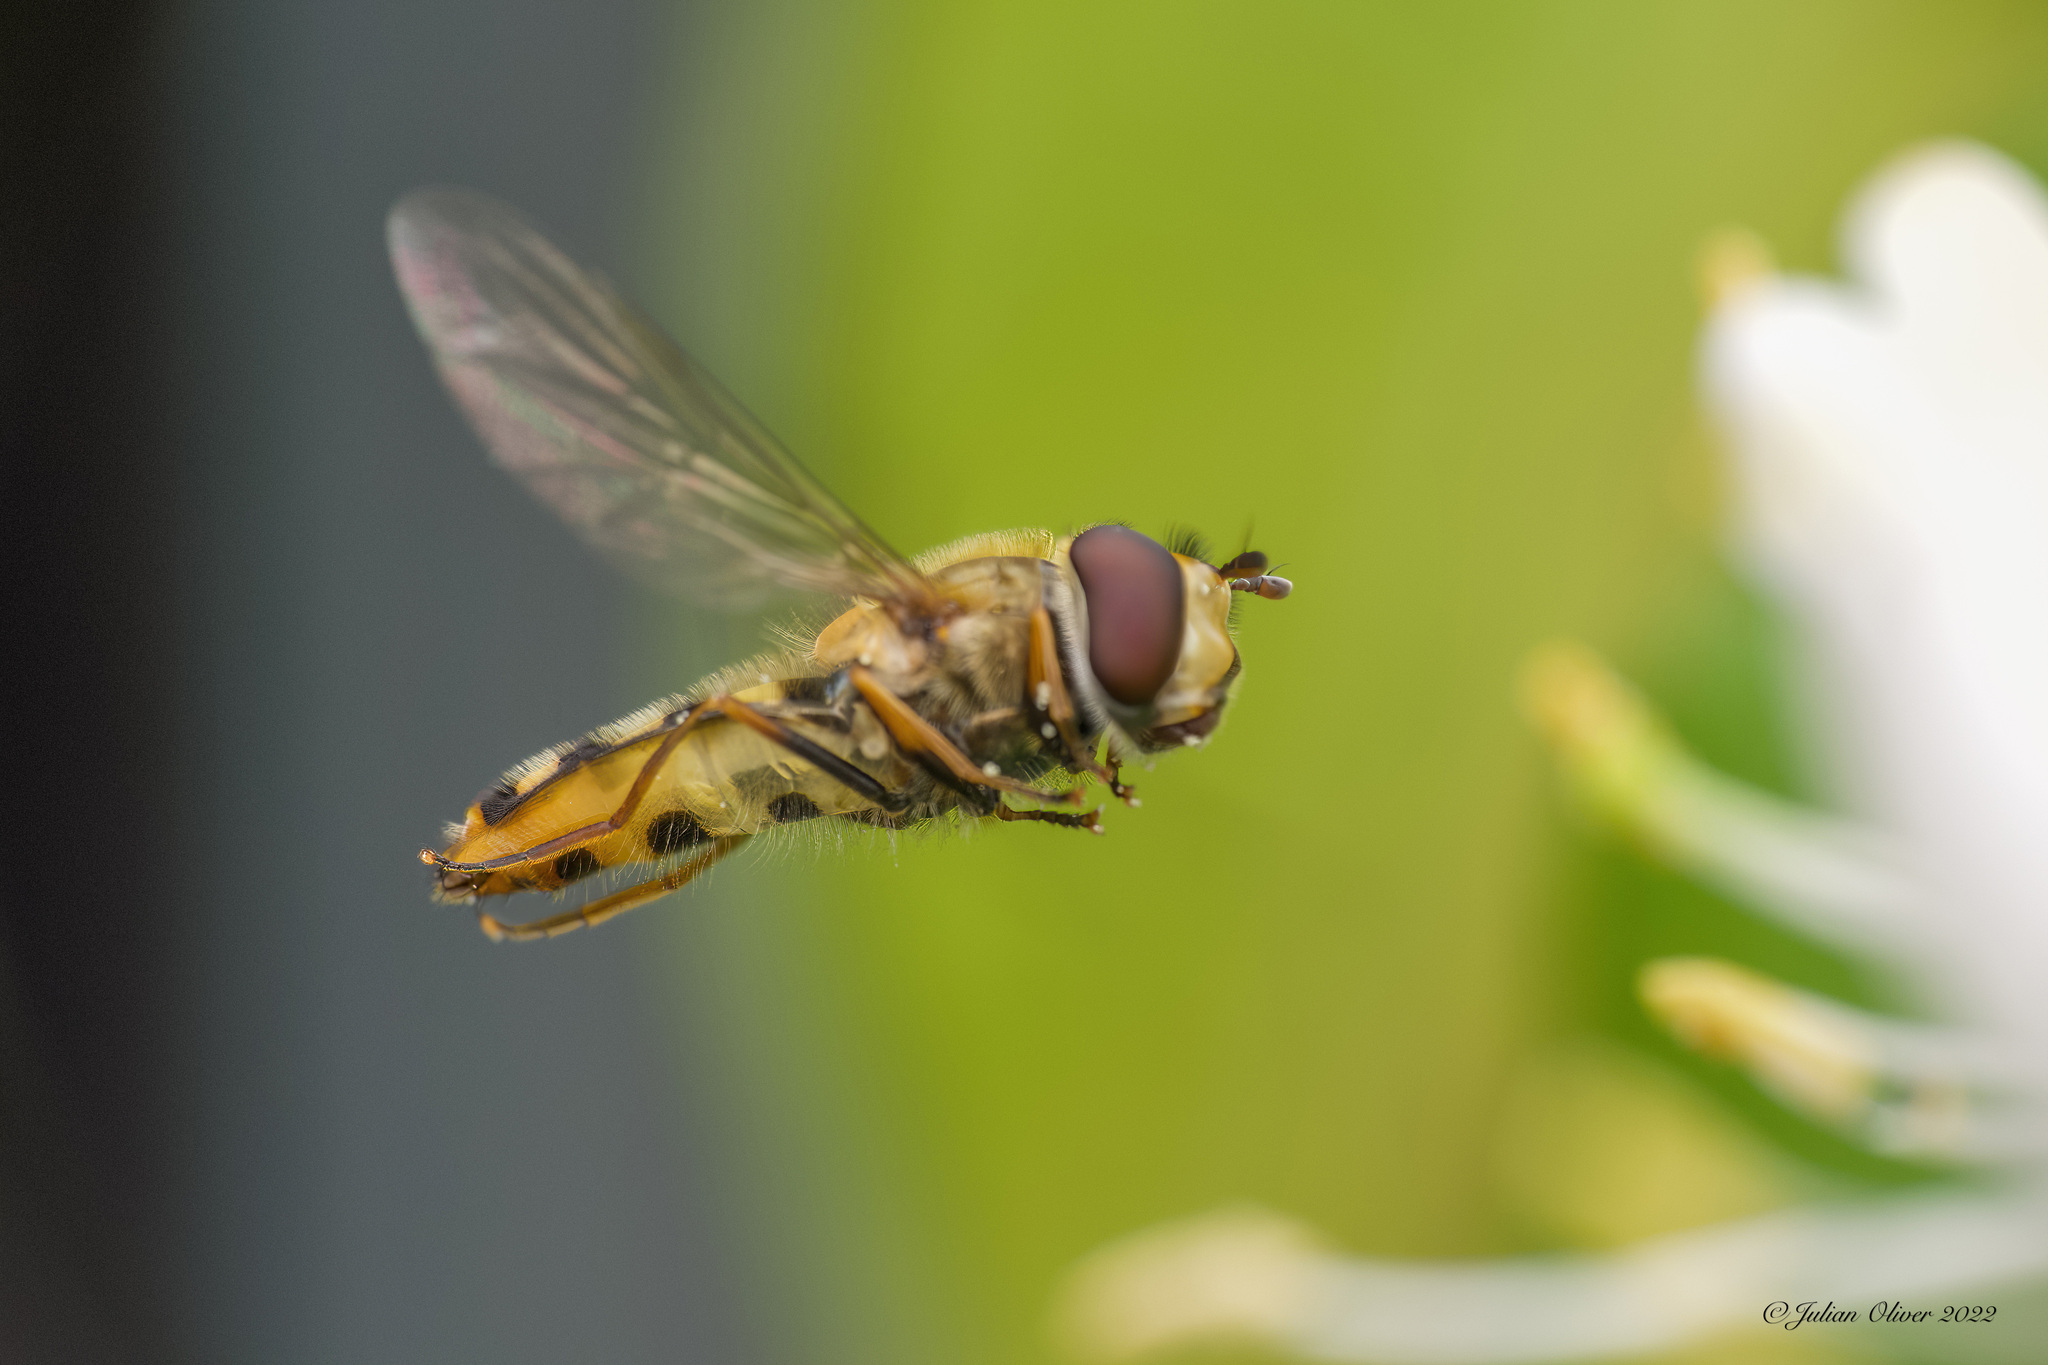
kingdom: Animalia
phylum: Arthropoda
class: Insecta
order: Diptera
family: Syrphidae
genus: Eupeodes
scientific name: Eupeodes
